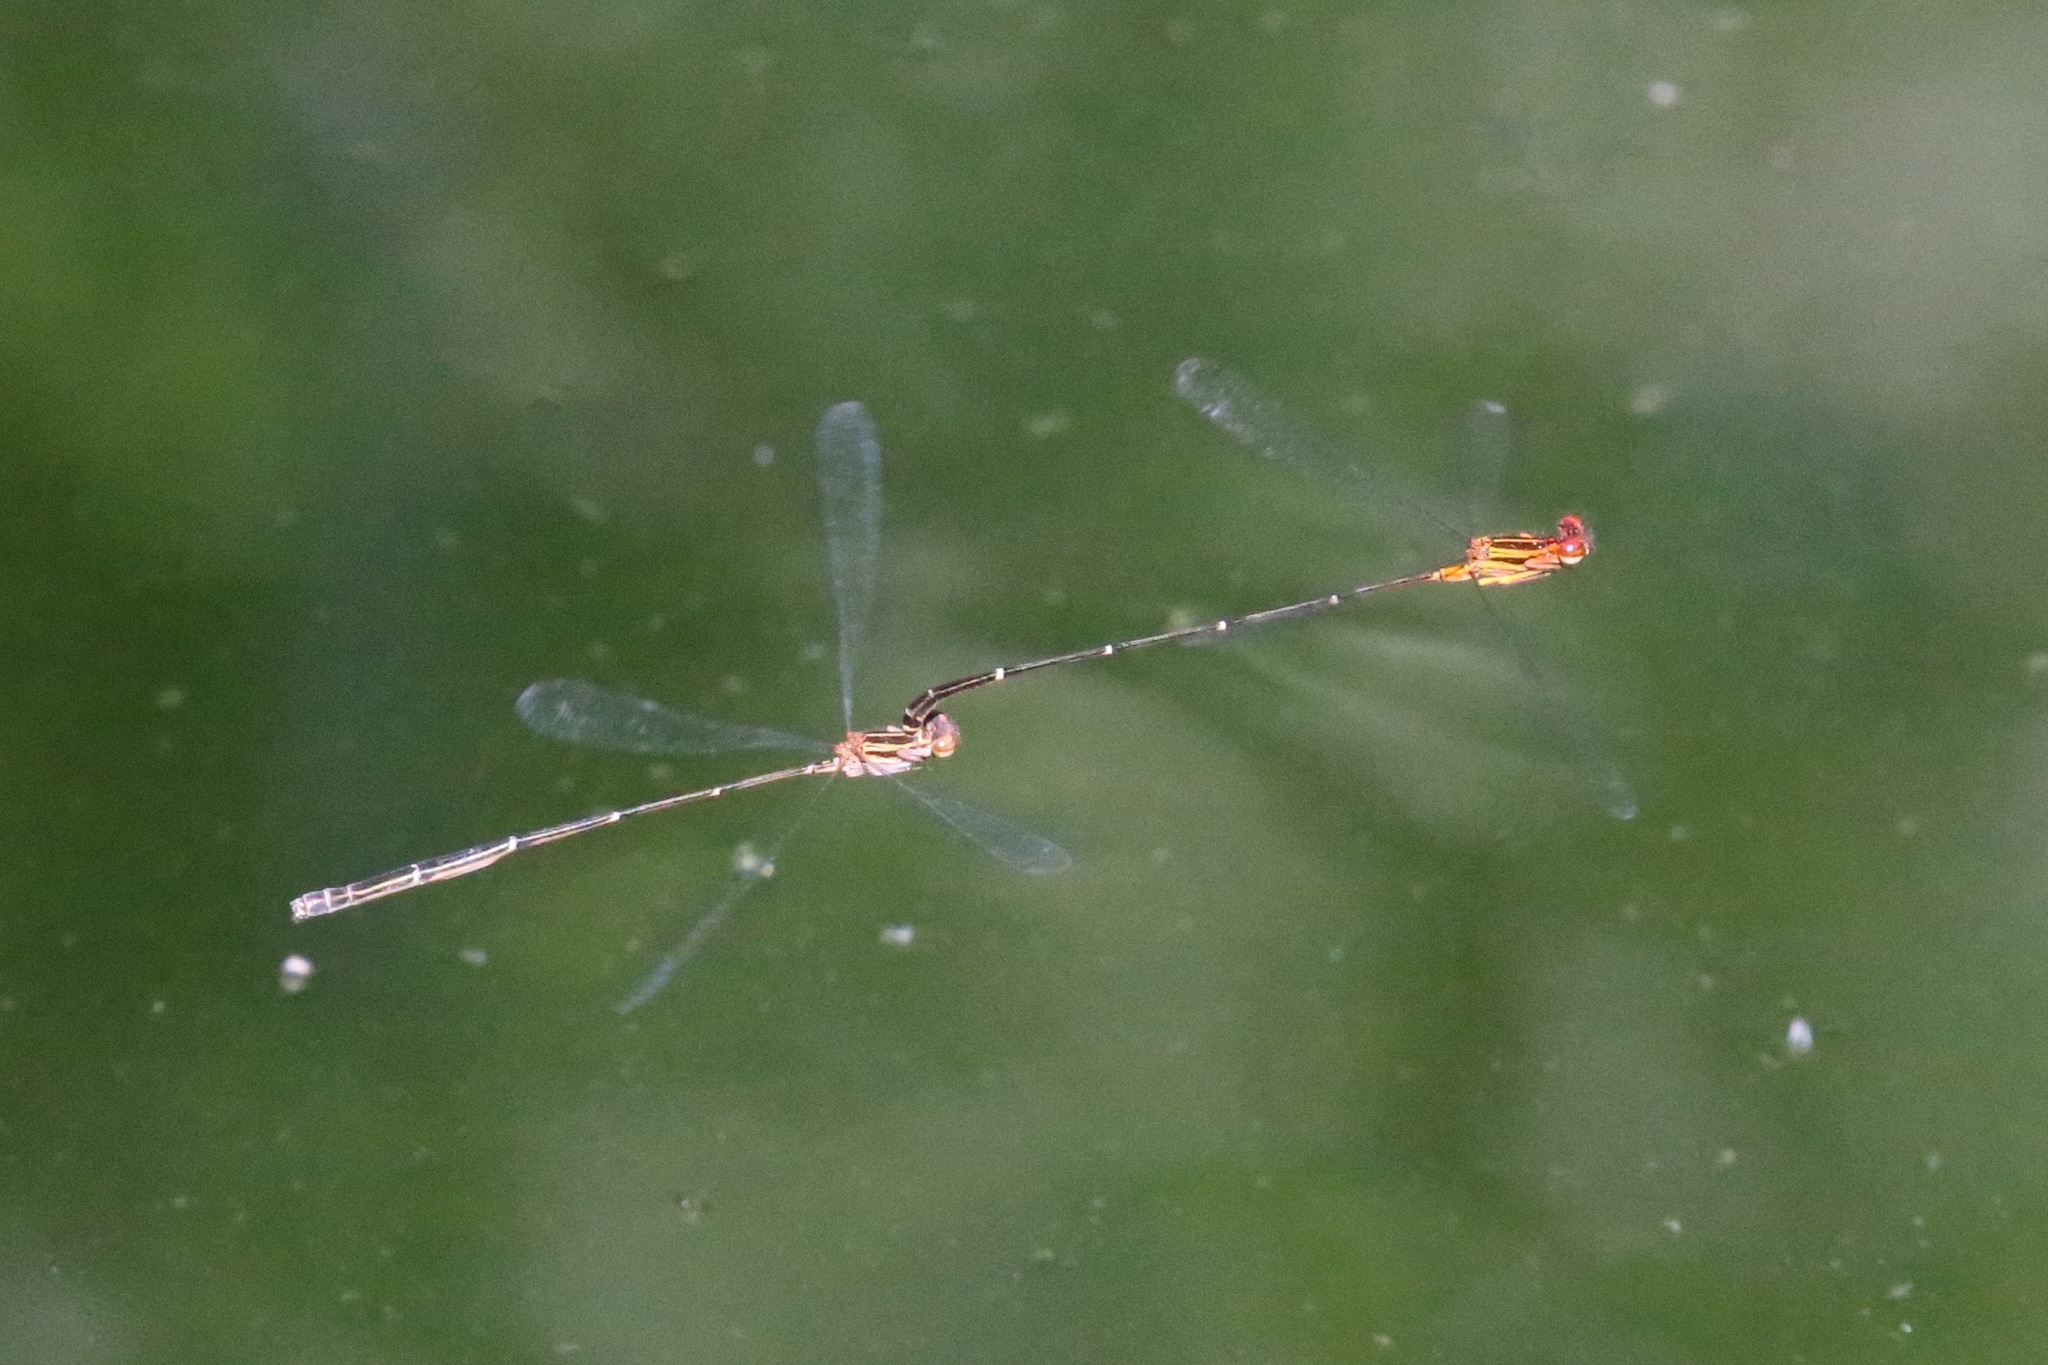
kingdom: Animalia
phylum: Arthropoda
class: Insecta
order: Odonata
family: Coenagrionidae
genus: Protoneura
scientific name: Protoneura cara
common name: Orange-striped threadtail
